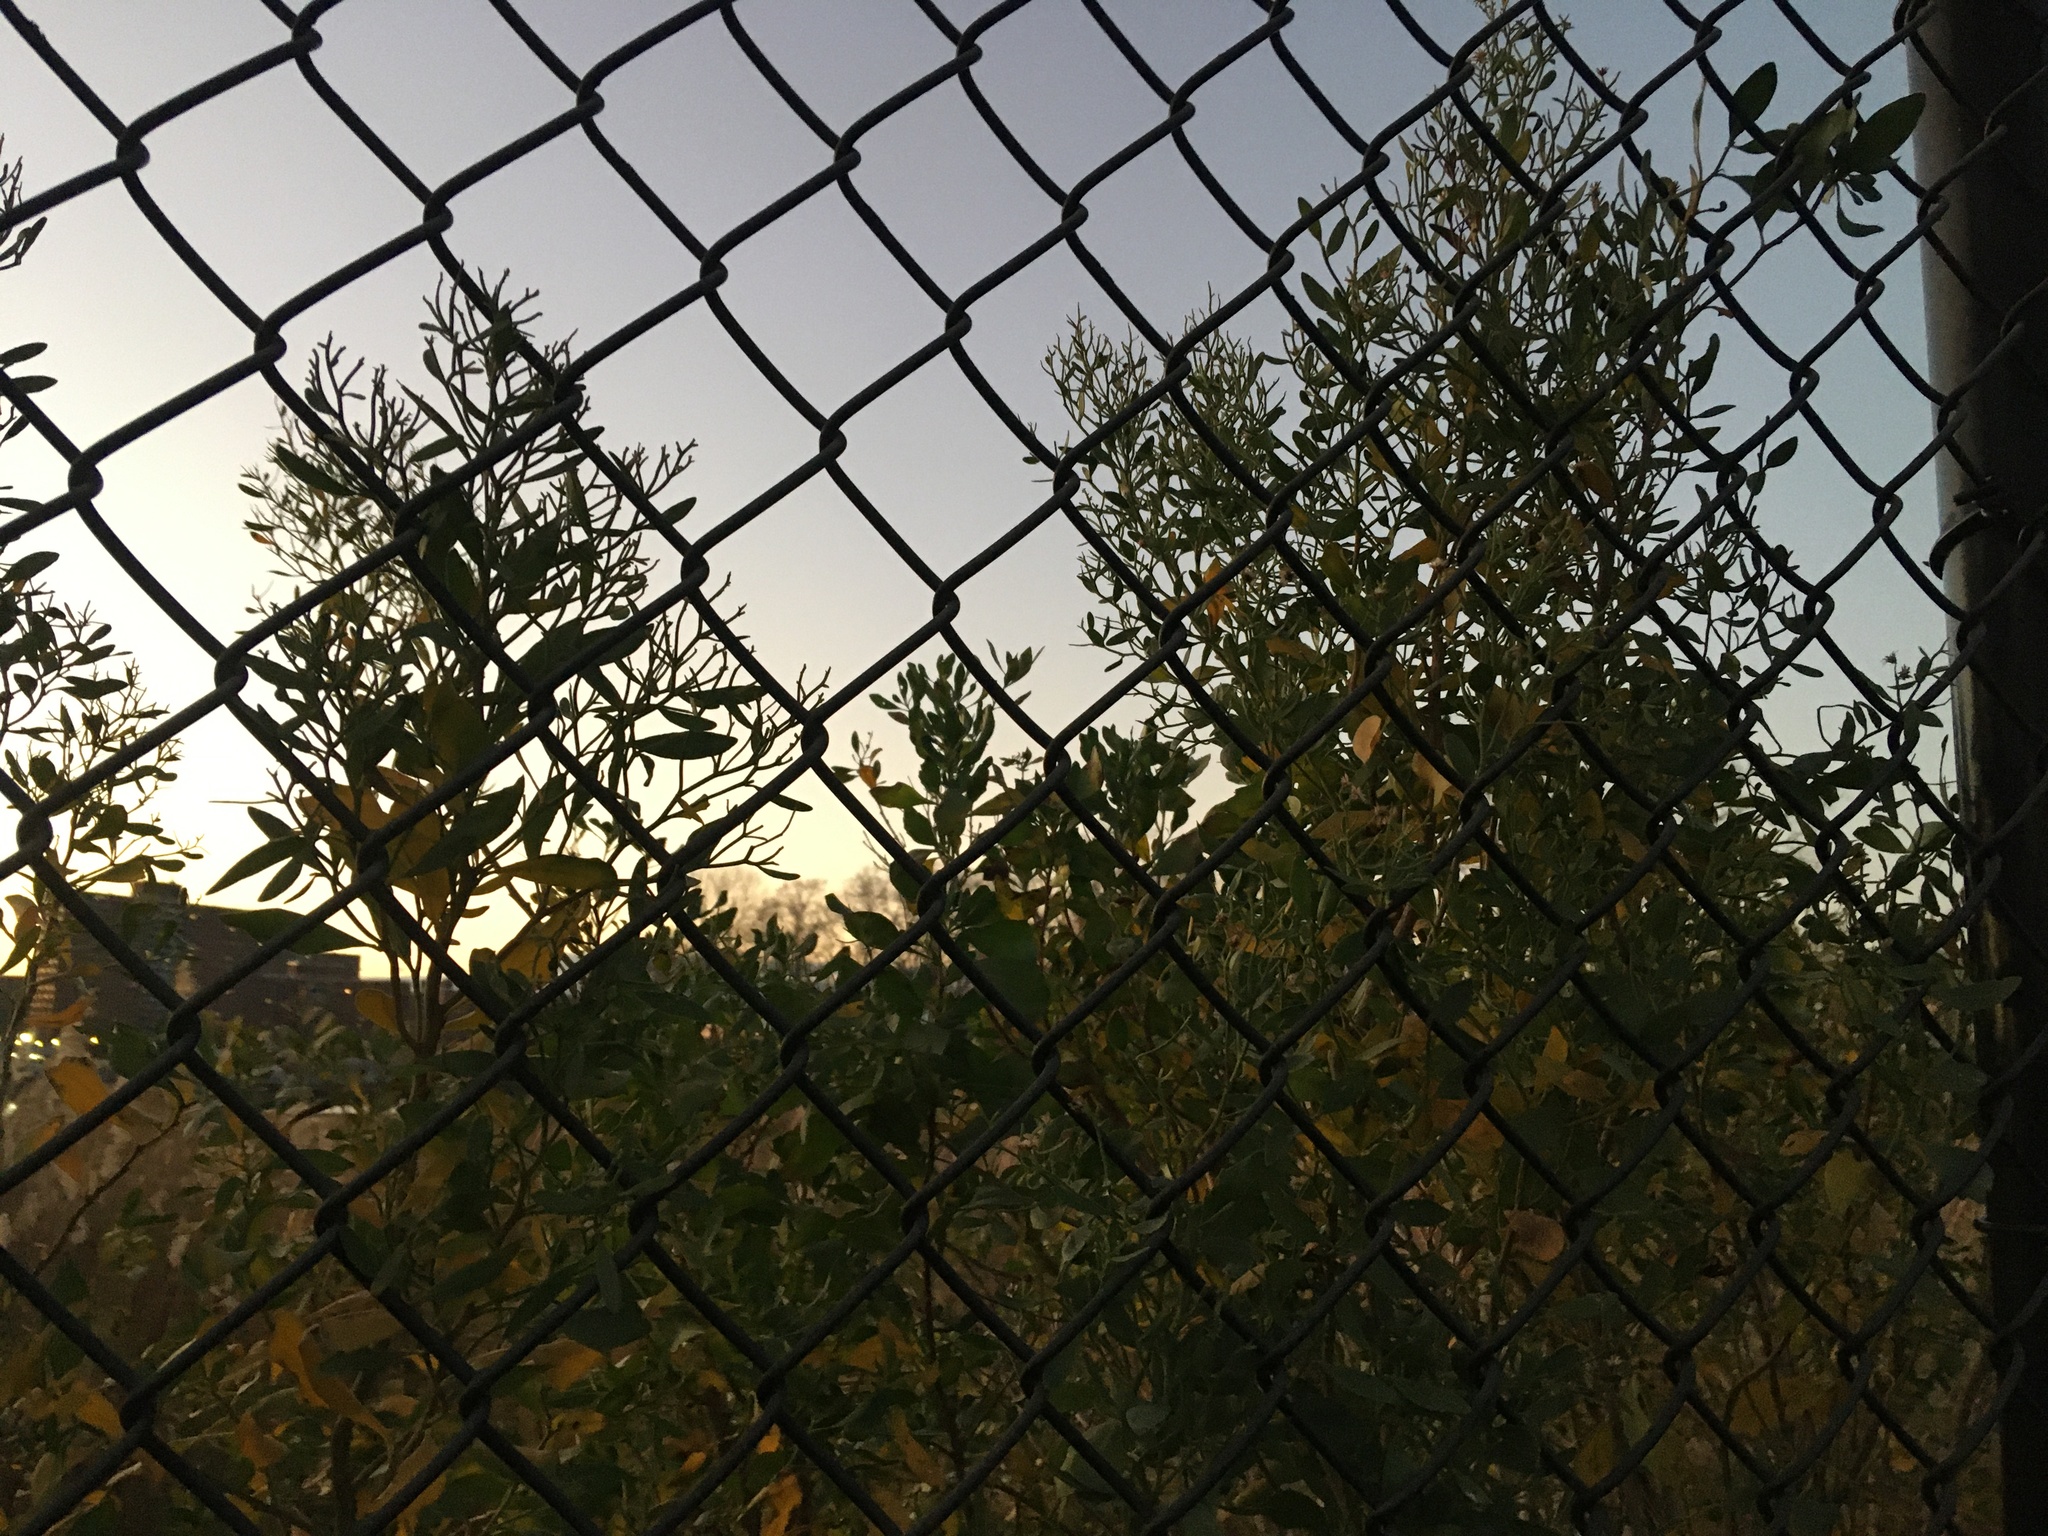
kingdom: Plantae
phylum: Tracheophyta
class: Magnoliopsida
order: Asterales
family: Asteraceae
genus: Baccharis
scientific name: Baccharis halimifolia
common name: Eastern baccharis
